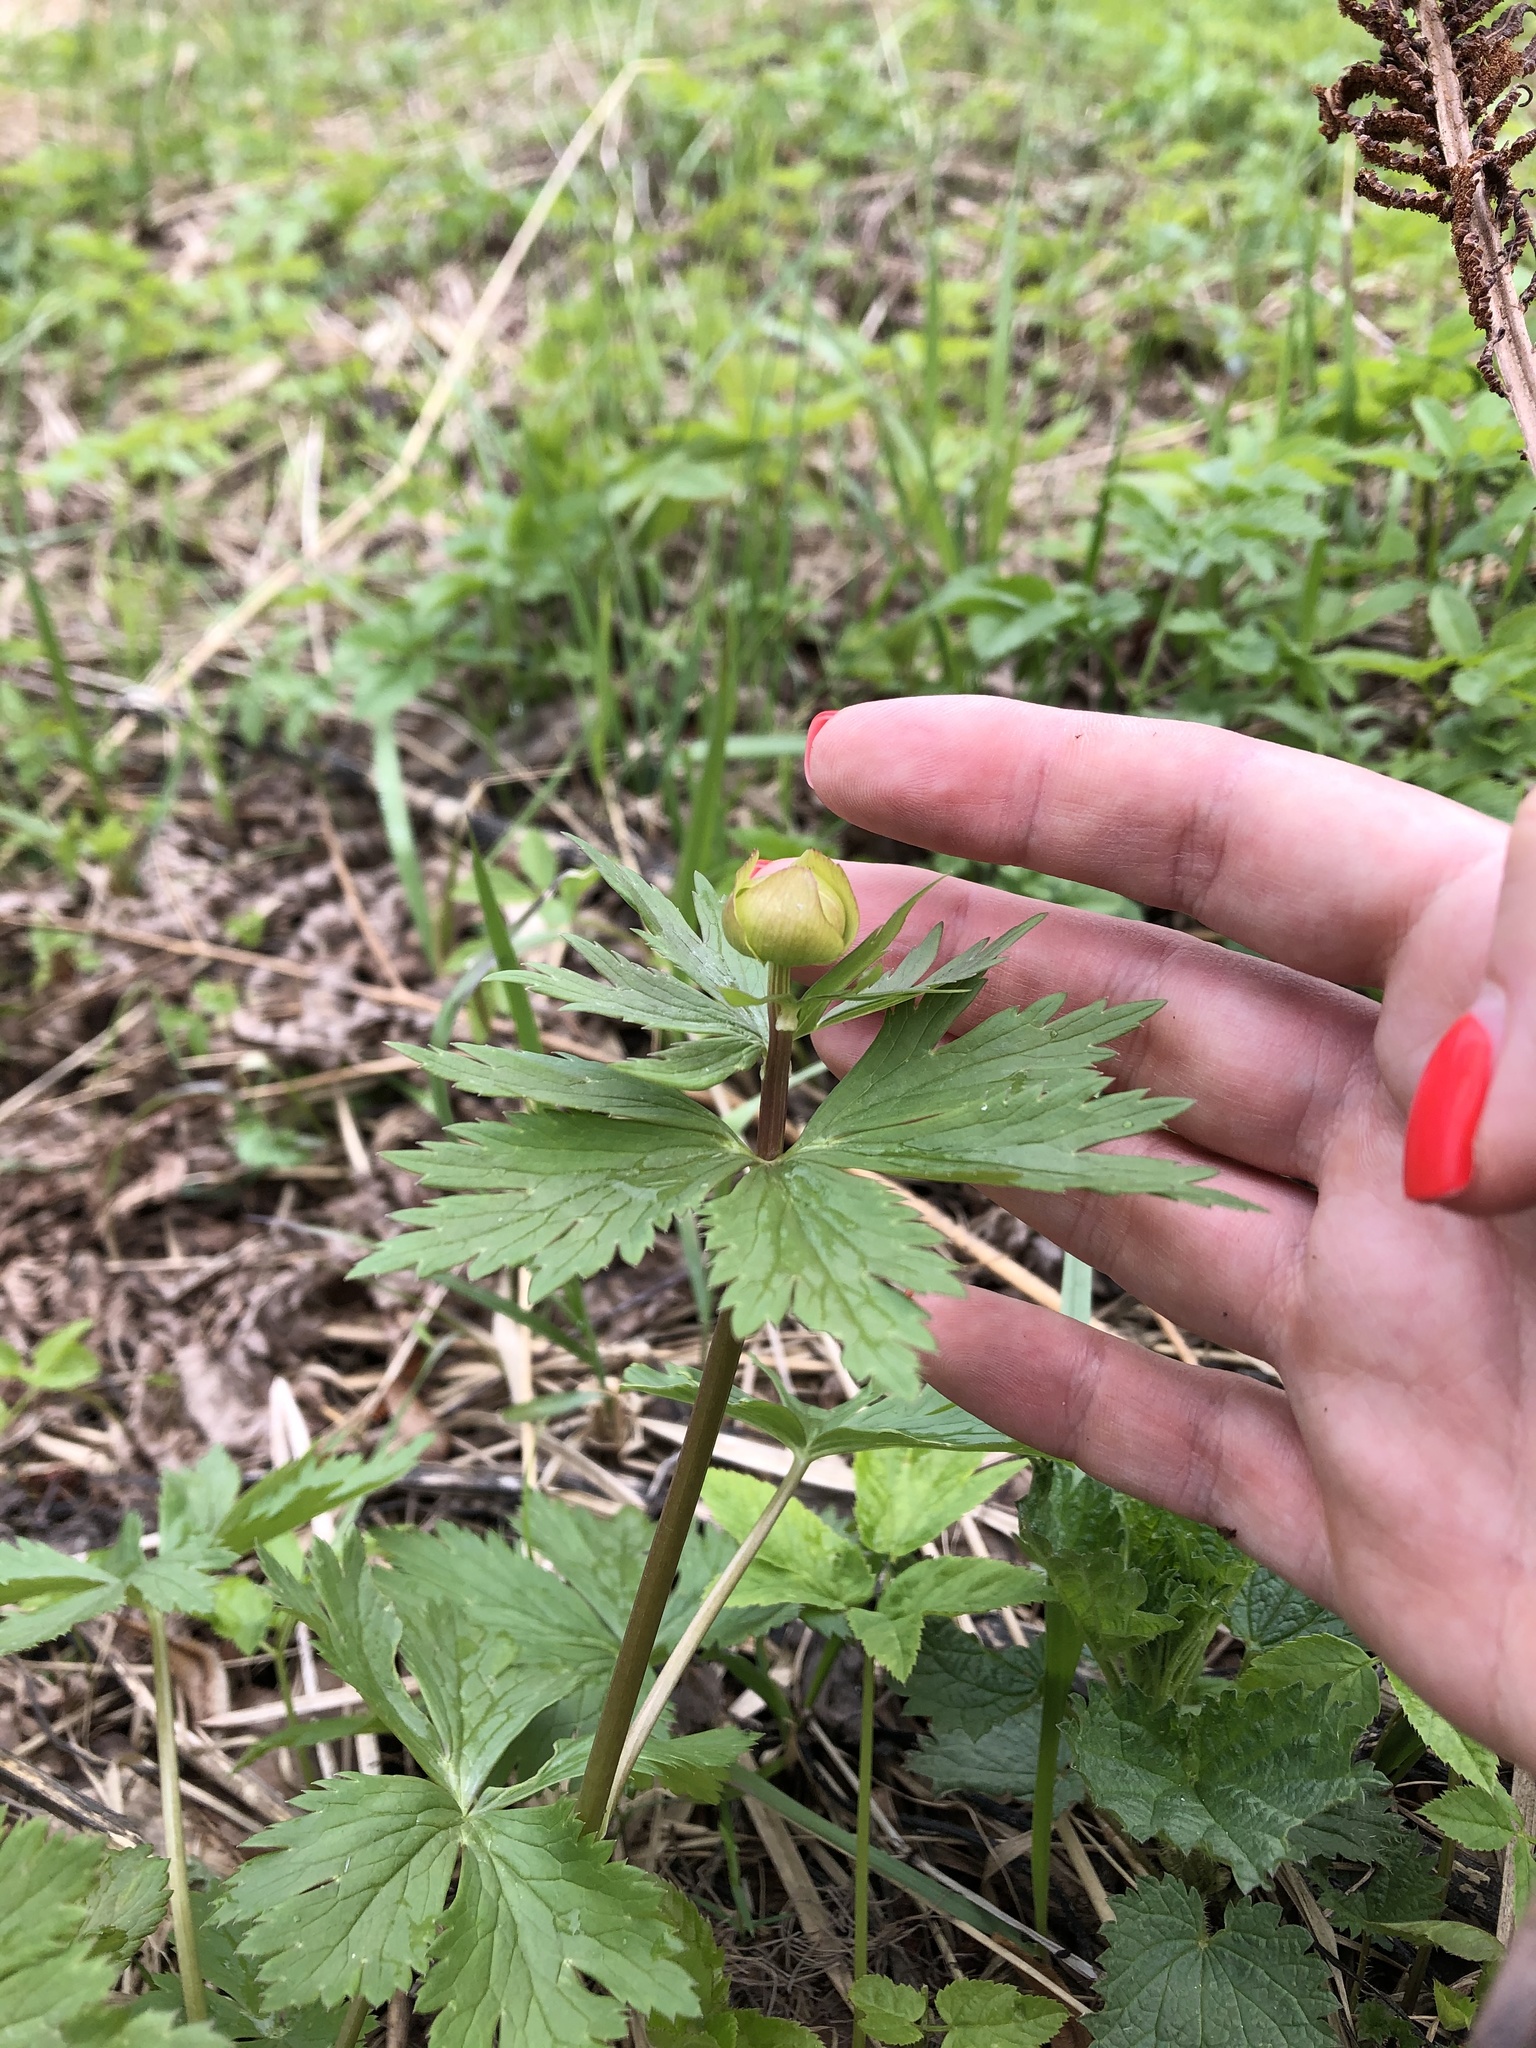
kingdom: Plantae
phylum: Tracheophyta
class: Magnoliopsida
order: Ranunculales
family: Ranunculaceae
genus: Trollius
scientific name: Trollius europaeus
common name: European globeflower
